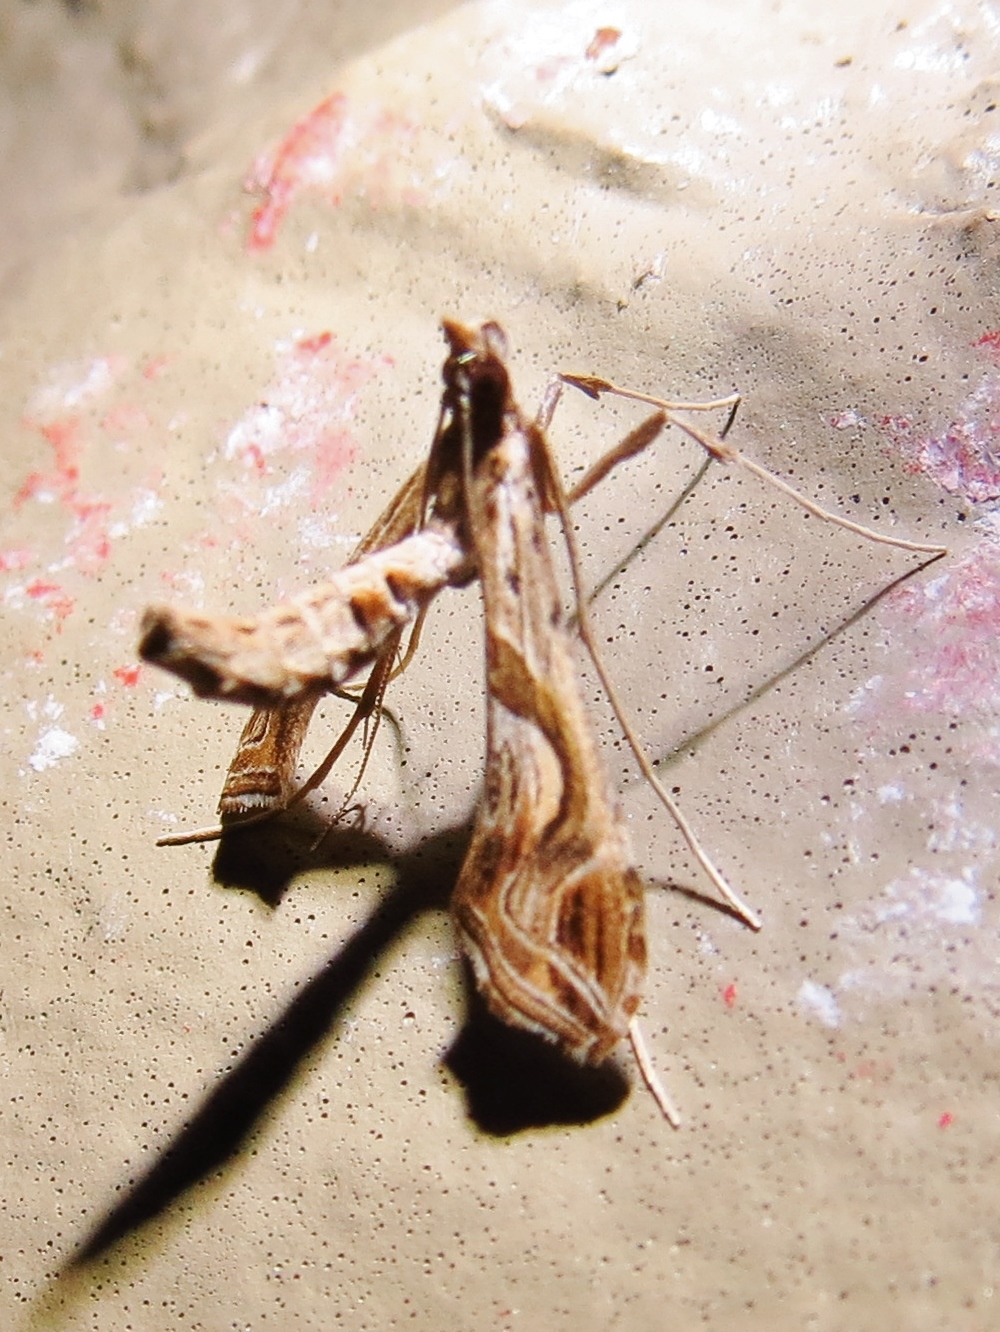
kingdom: Animalia
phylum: Arthropoda
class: Insecta
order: Lepidoptera
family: Crambidae
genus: Lineodes
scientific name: Lineodes integra
